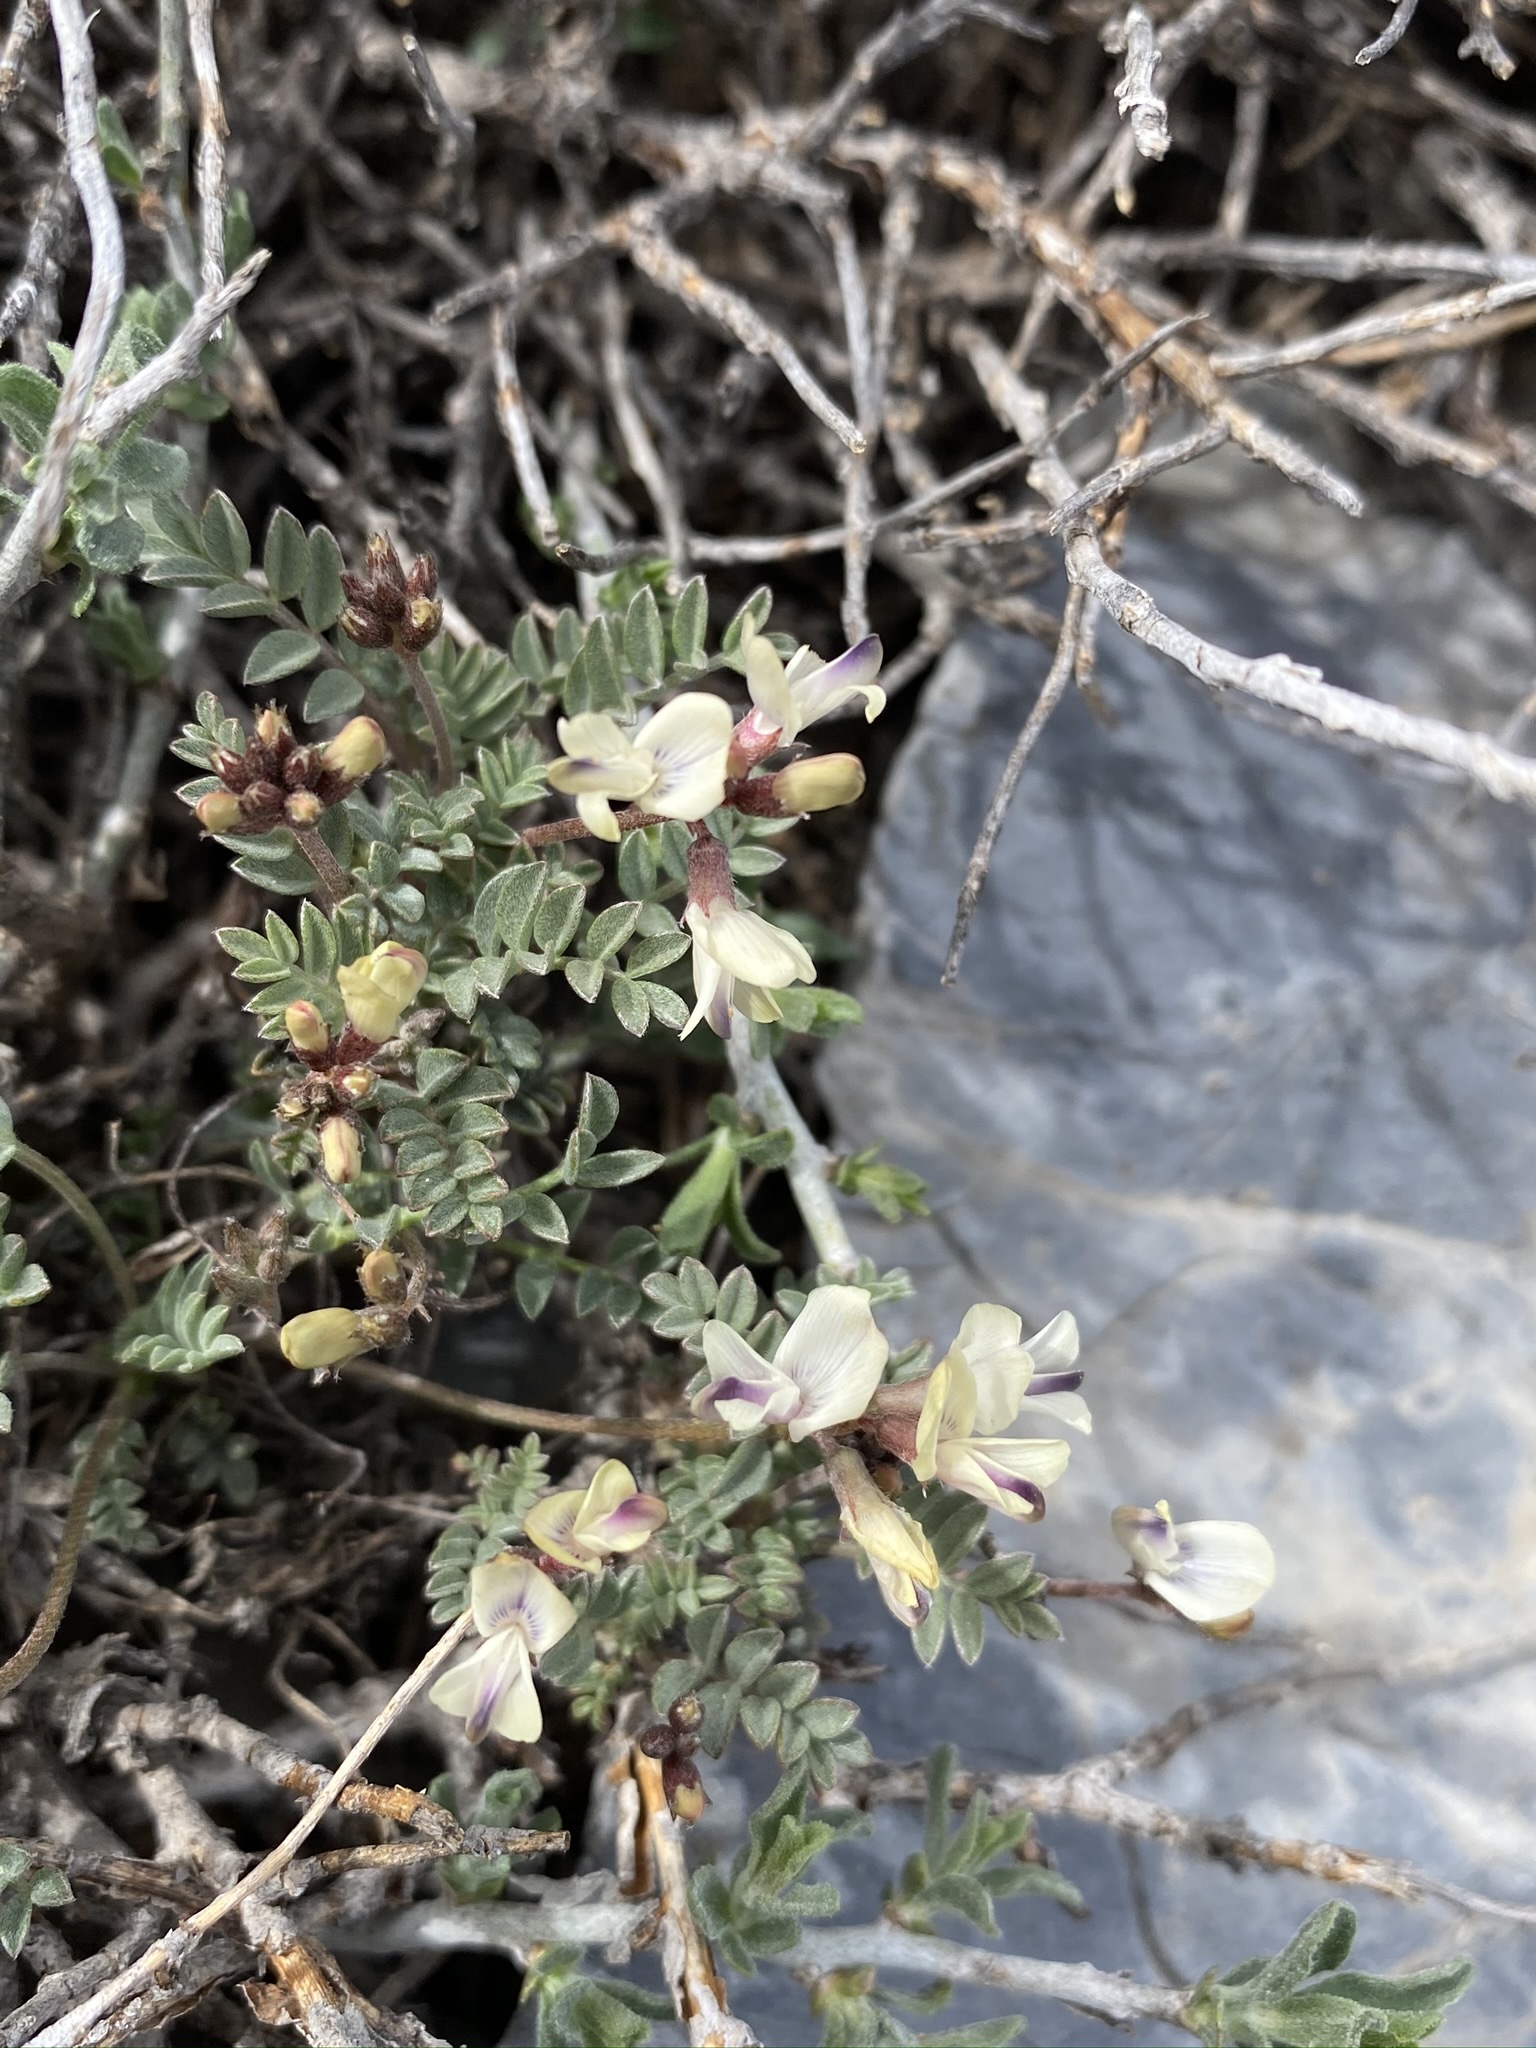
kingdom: Plantae
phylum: Tracheophyta
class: Magnoliopsida
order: Fabales
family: Fabaceae
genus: Astragalus
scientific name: Astragalus platytropis
